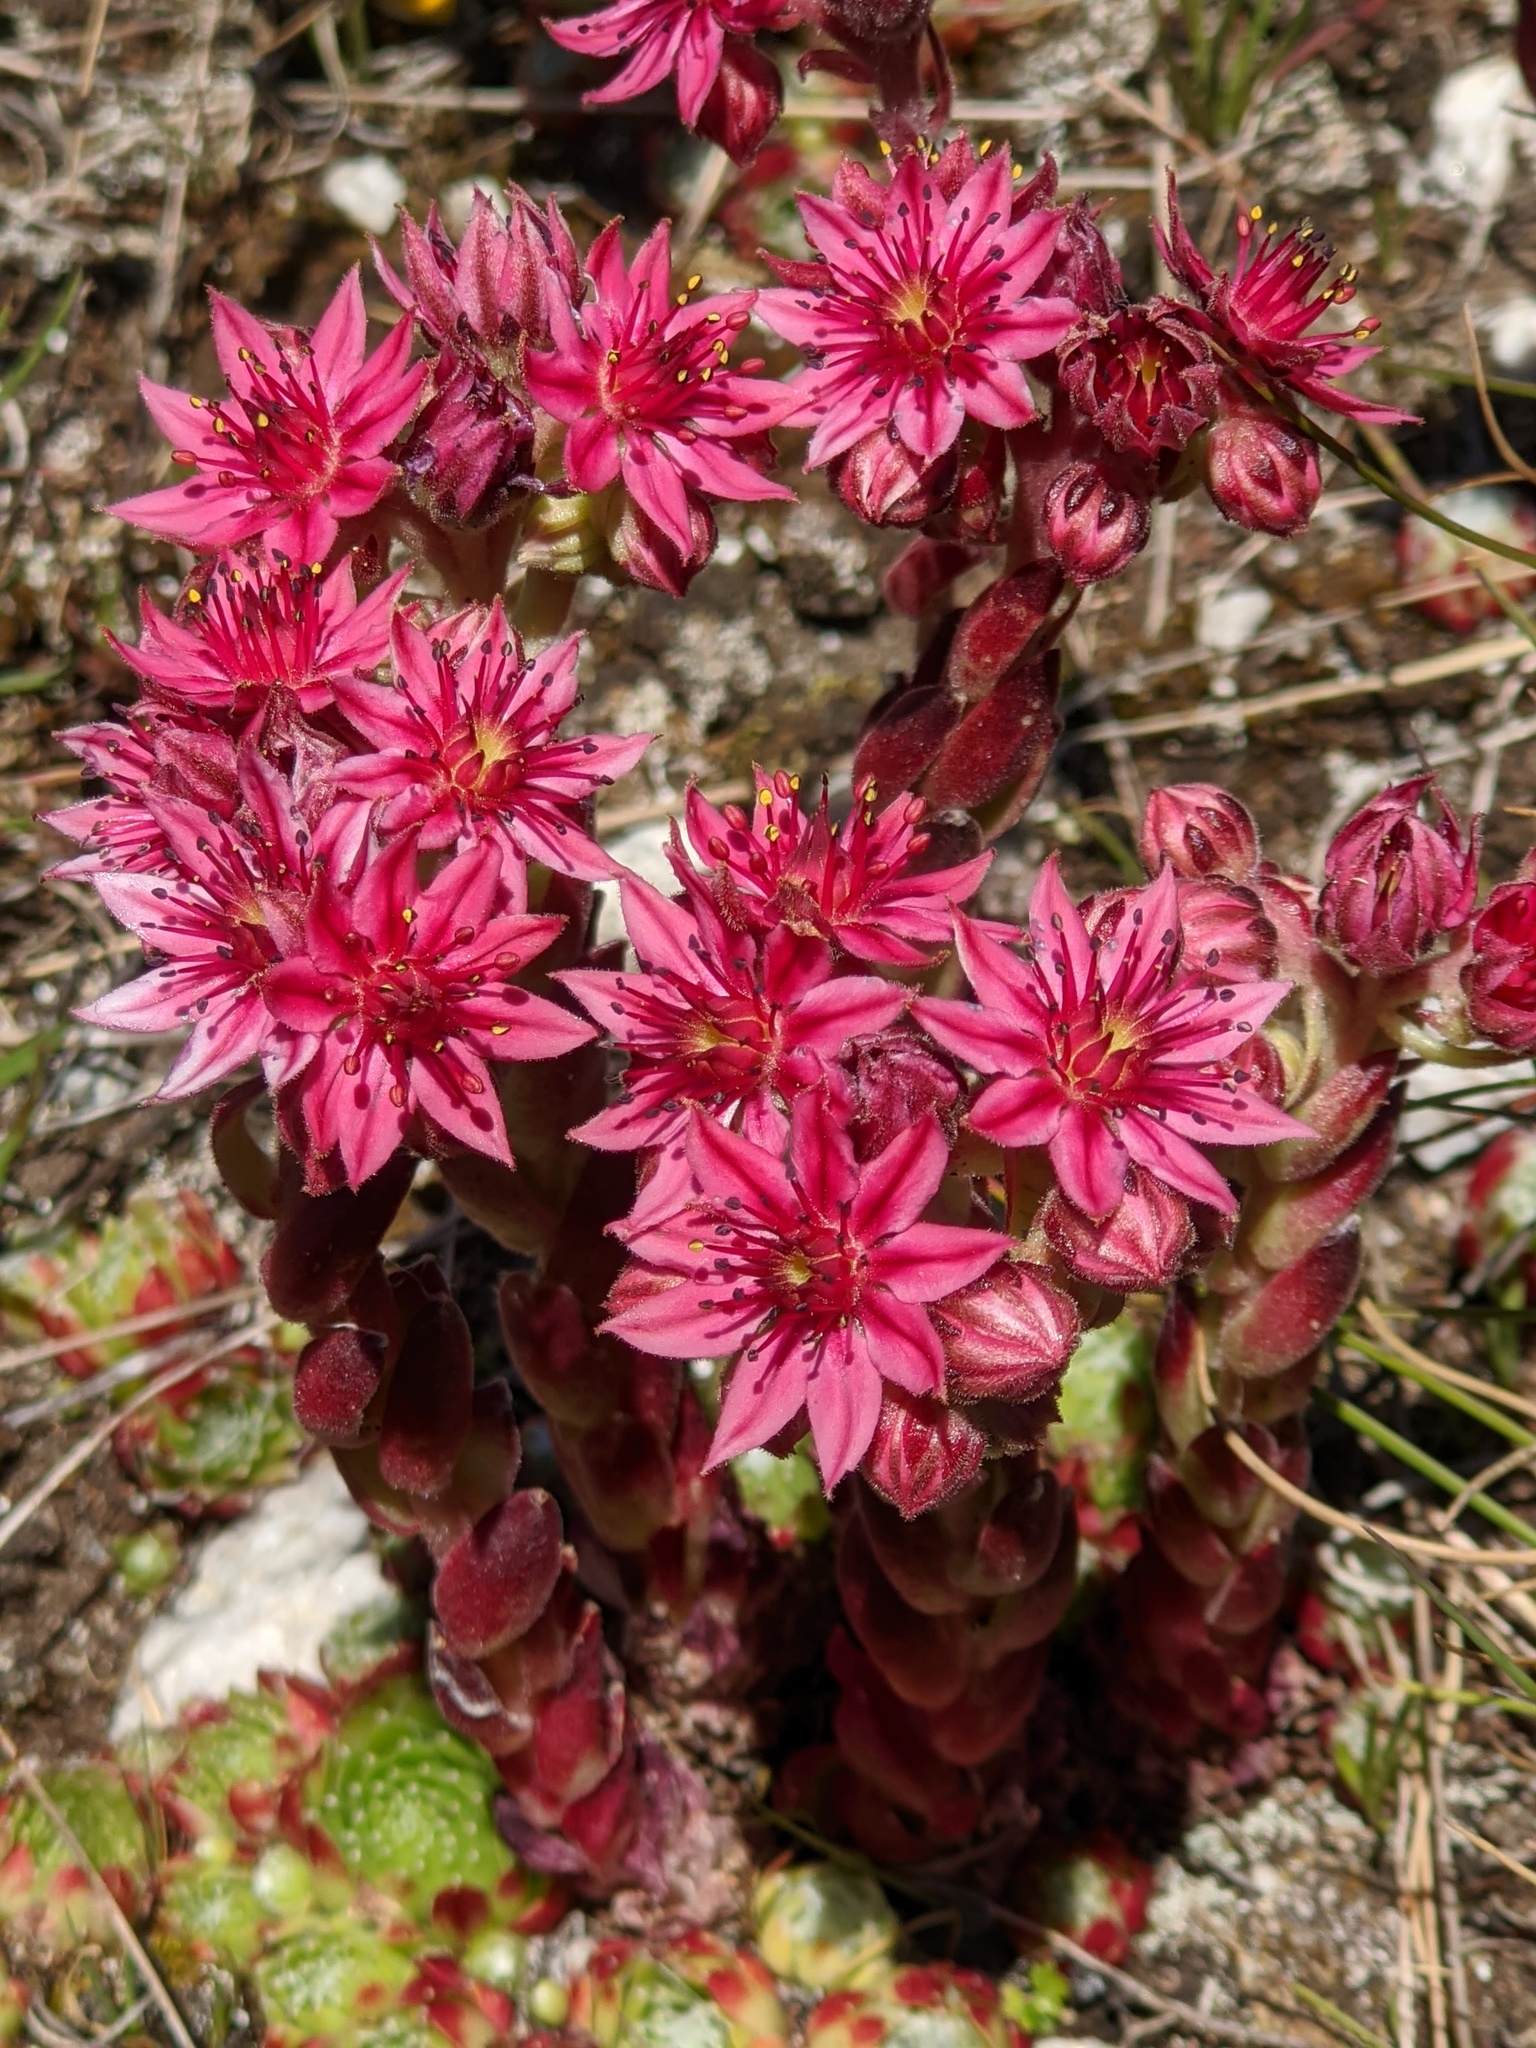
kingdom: Plantae
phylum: Tracheophyta
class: Magnoliopsida
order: Saxifragales
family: Crassulaceae
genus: Sempervivum
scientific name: Sempervivum arachnoideum
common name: Cobweb house-leek
